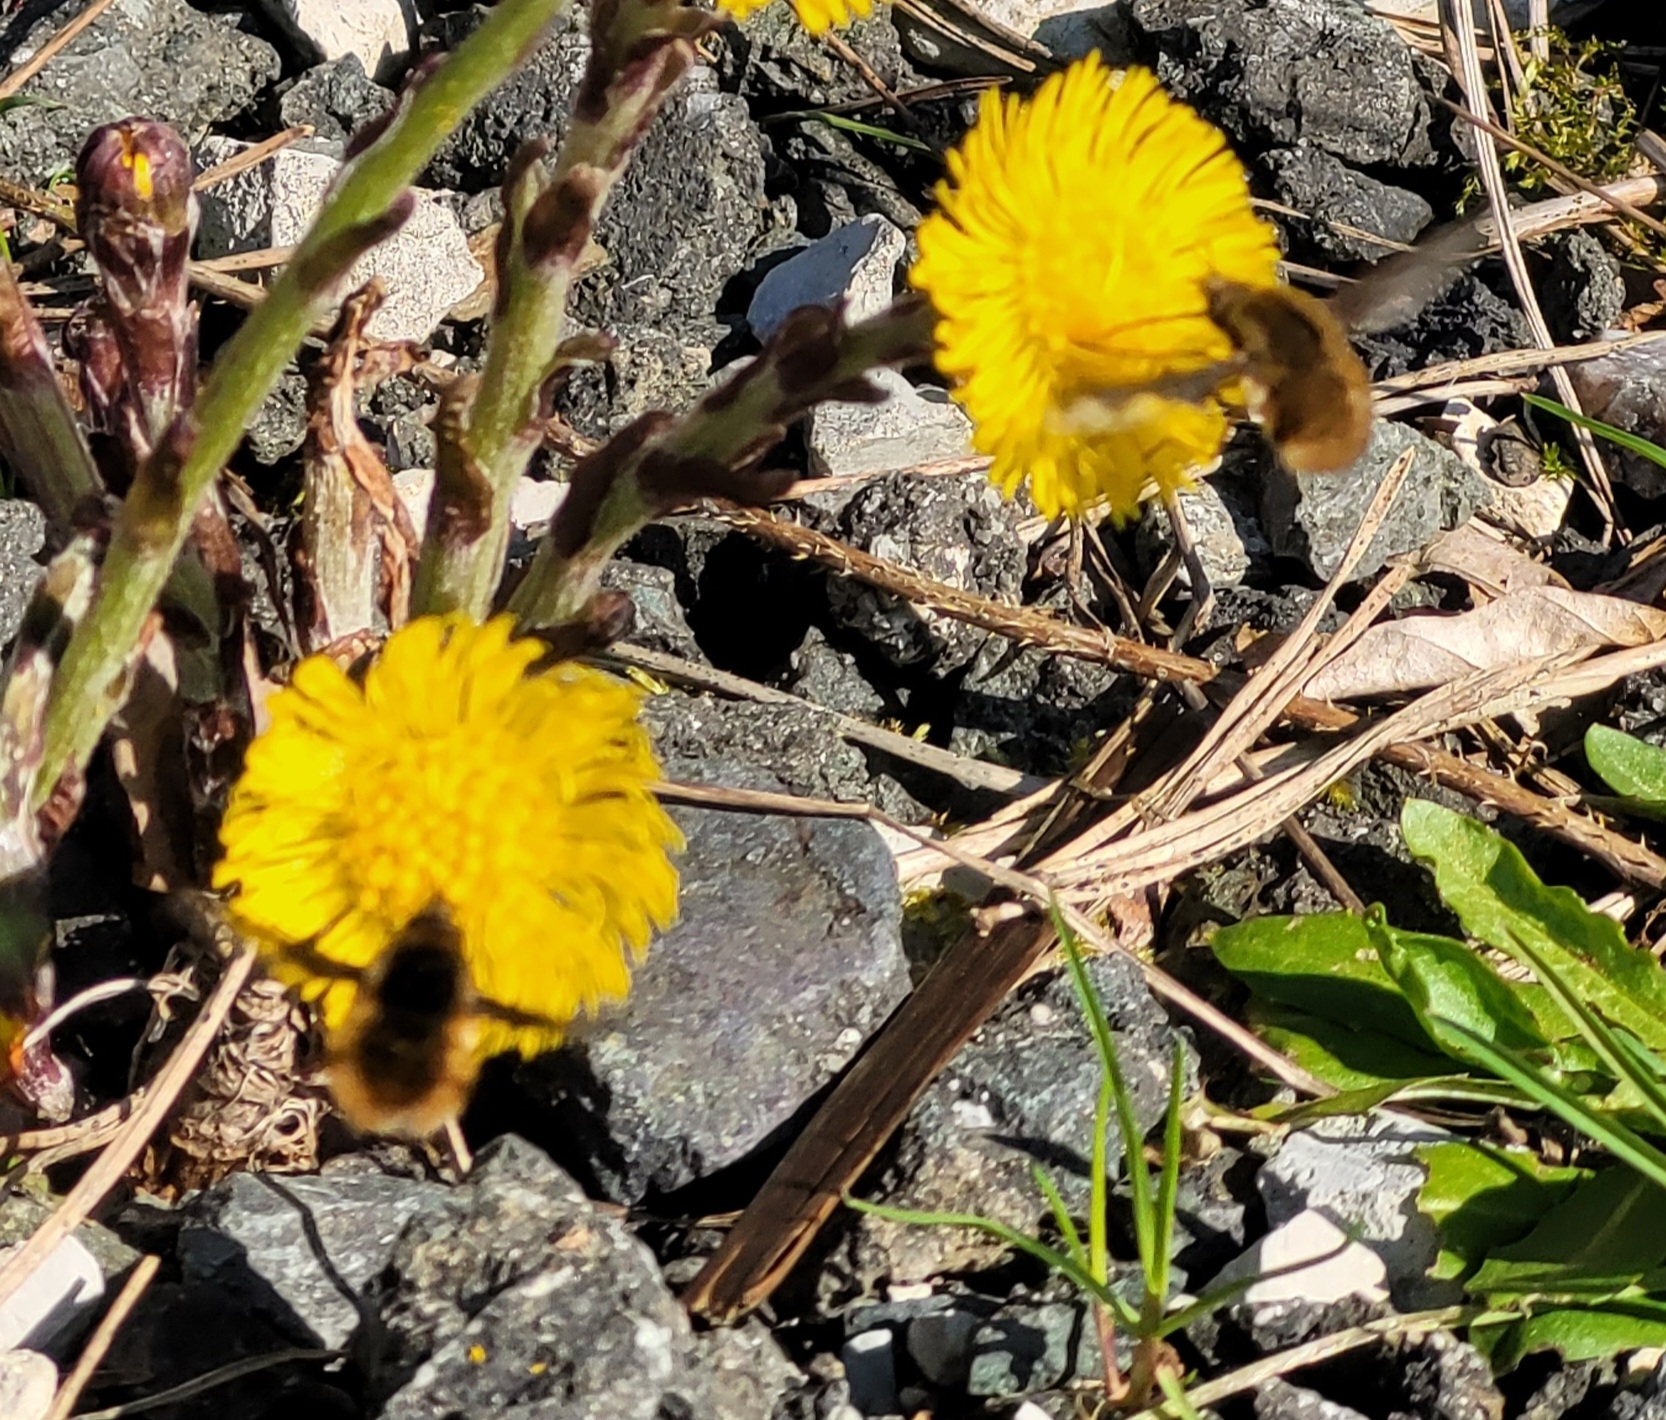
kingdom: Animalia
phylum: Arthropoda
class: Insecta
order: Diptera
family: Bombyliidae
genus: Bombylius
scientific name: Bombylius major
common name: Bee fly
